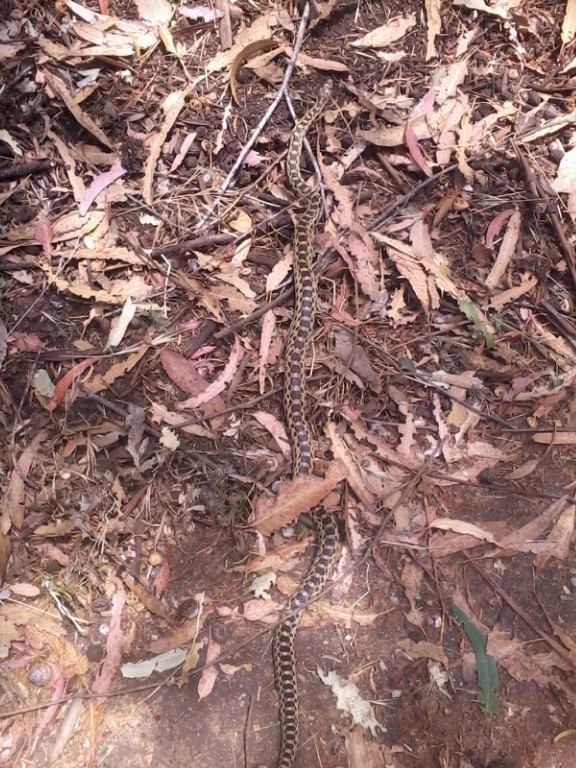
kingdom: Animalia
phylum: Chordata
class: Squamata
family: Colubridae
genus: Pituophis
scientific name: Pituophis catenifer
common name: Gopher snake
